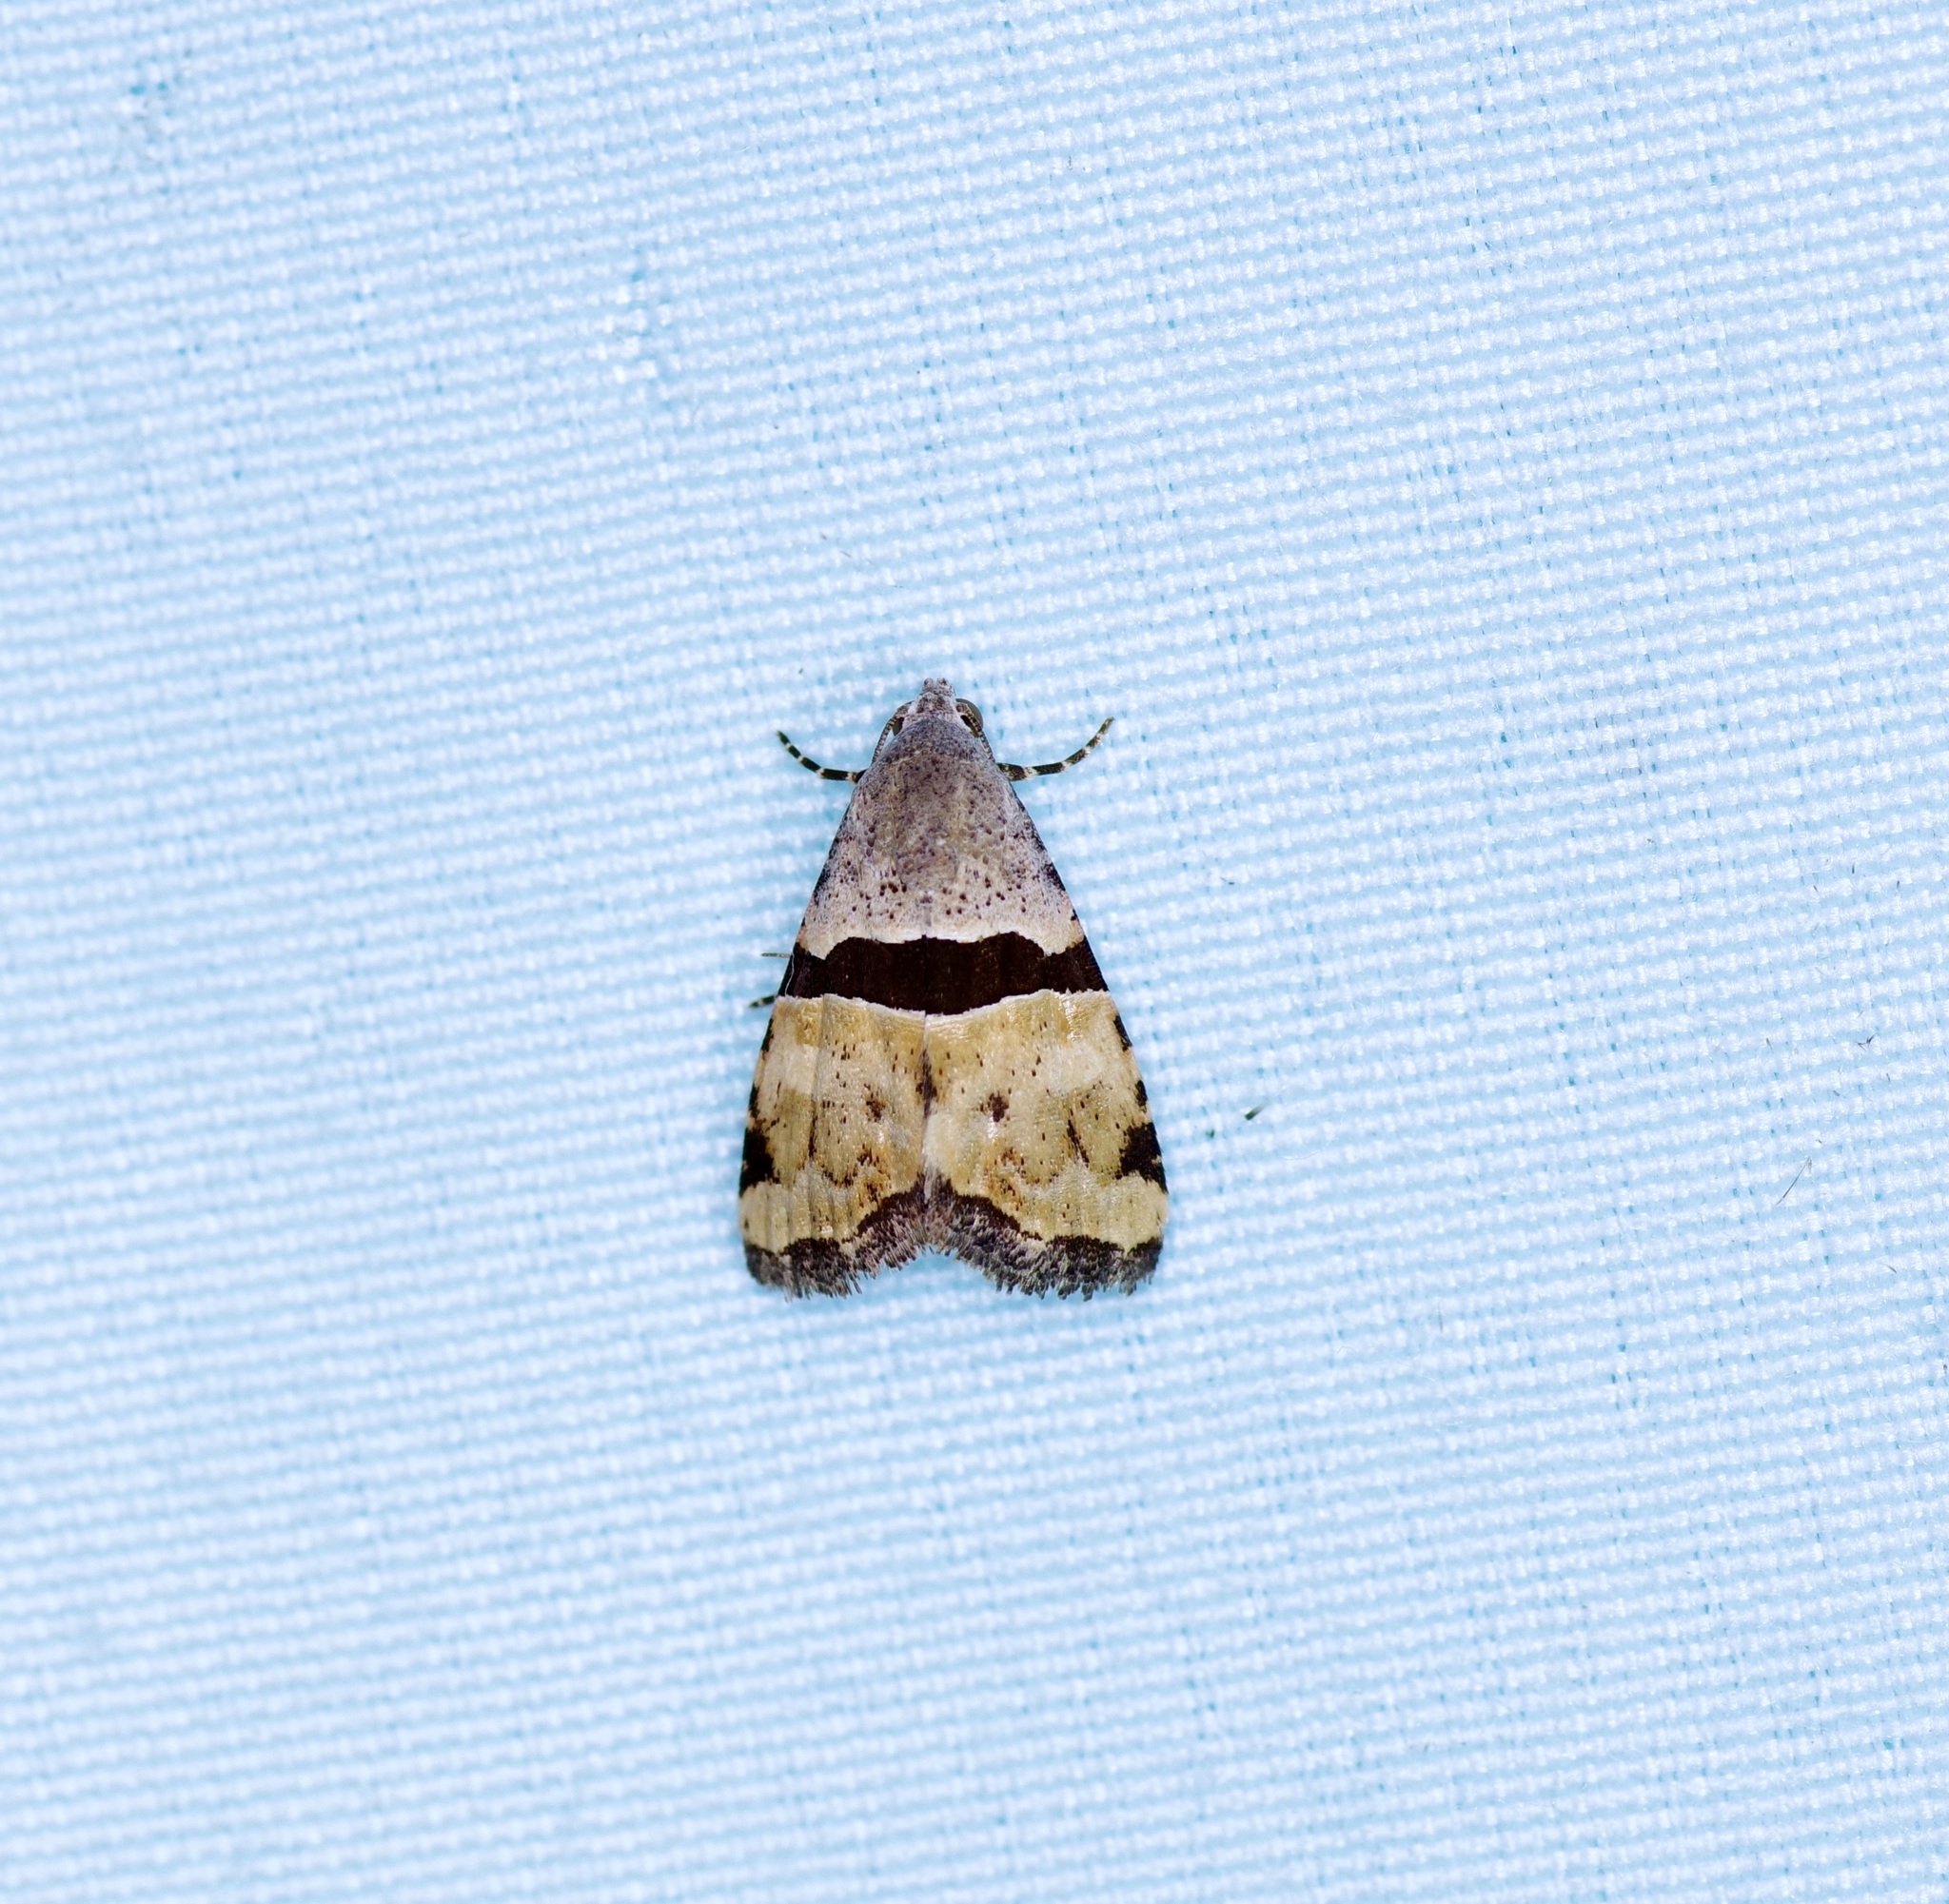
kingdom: Animalia
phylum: Arthropoda
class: Insecta
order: Lepidoptera
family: Noctuidae
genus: Cobubatha
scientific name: Cobubatha lixiva
